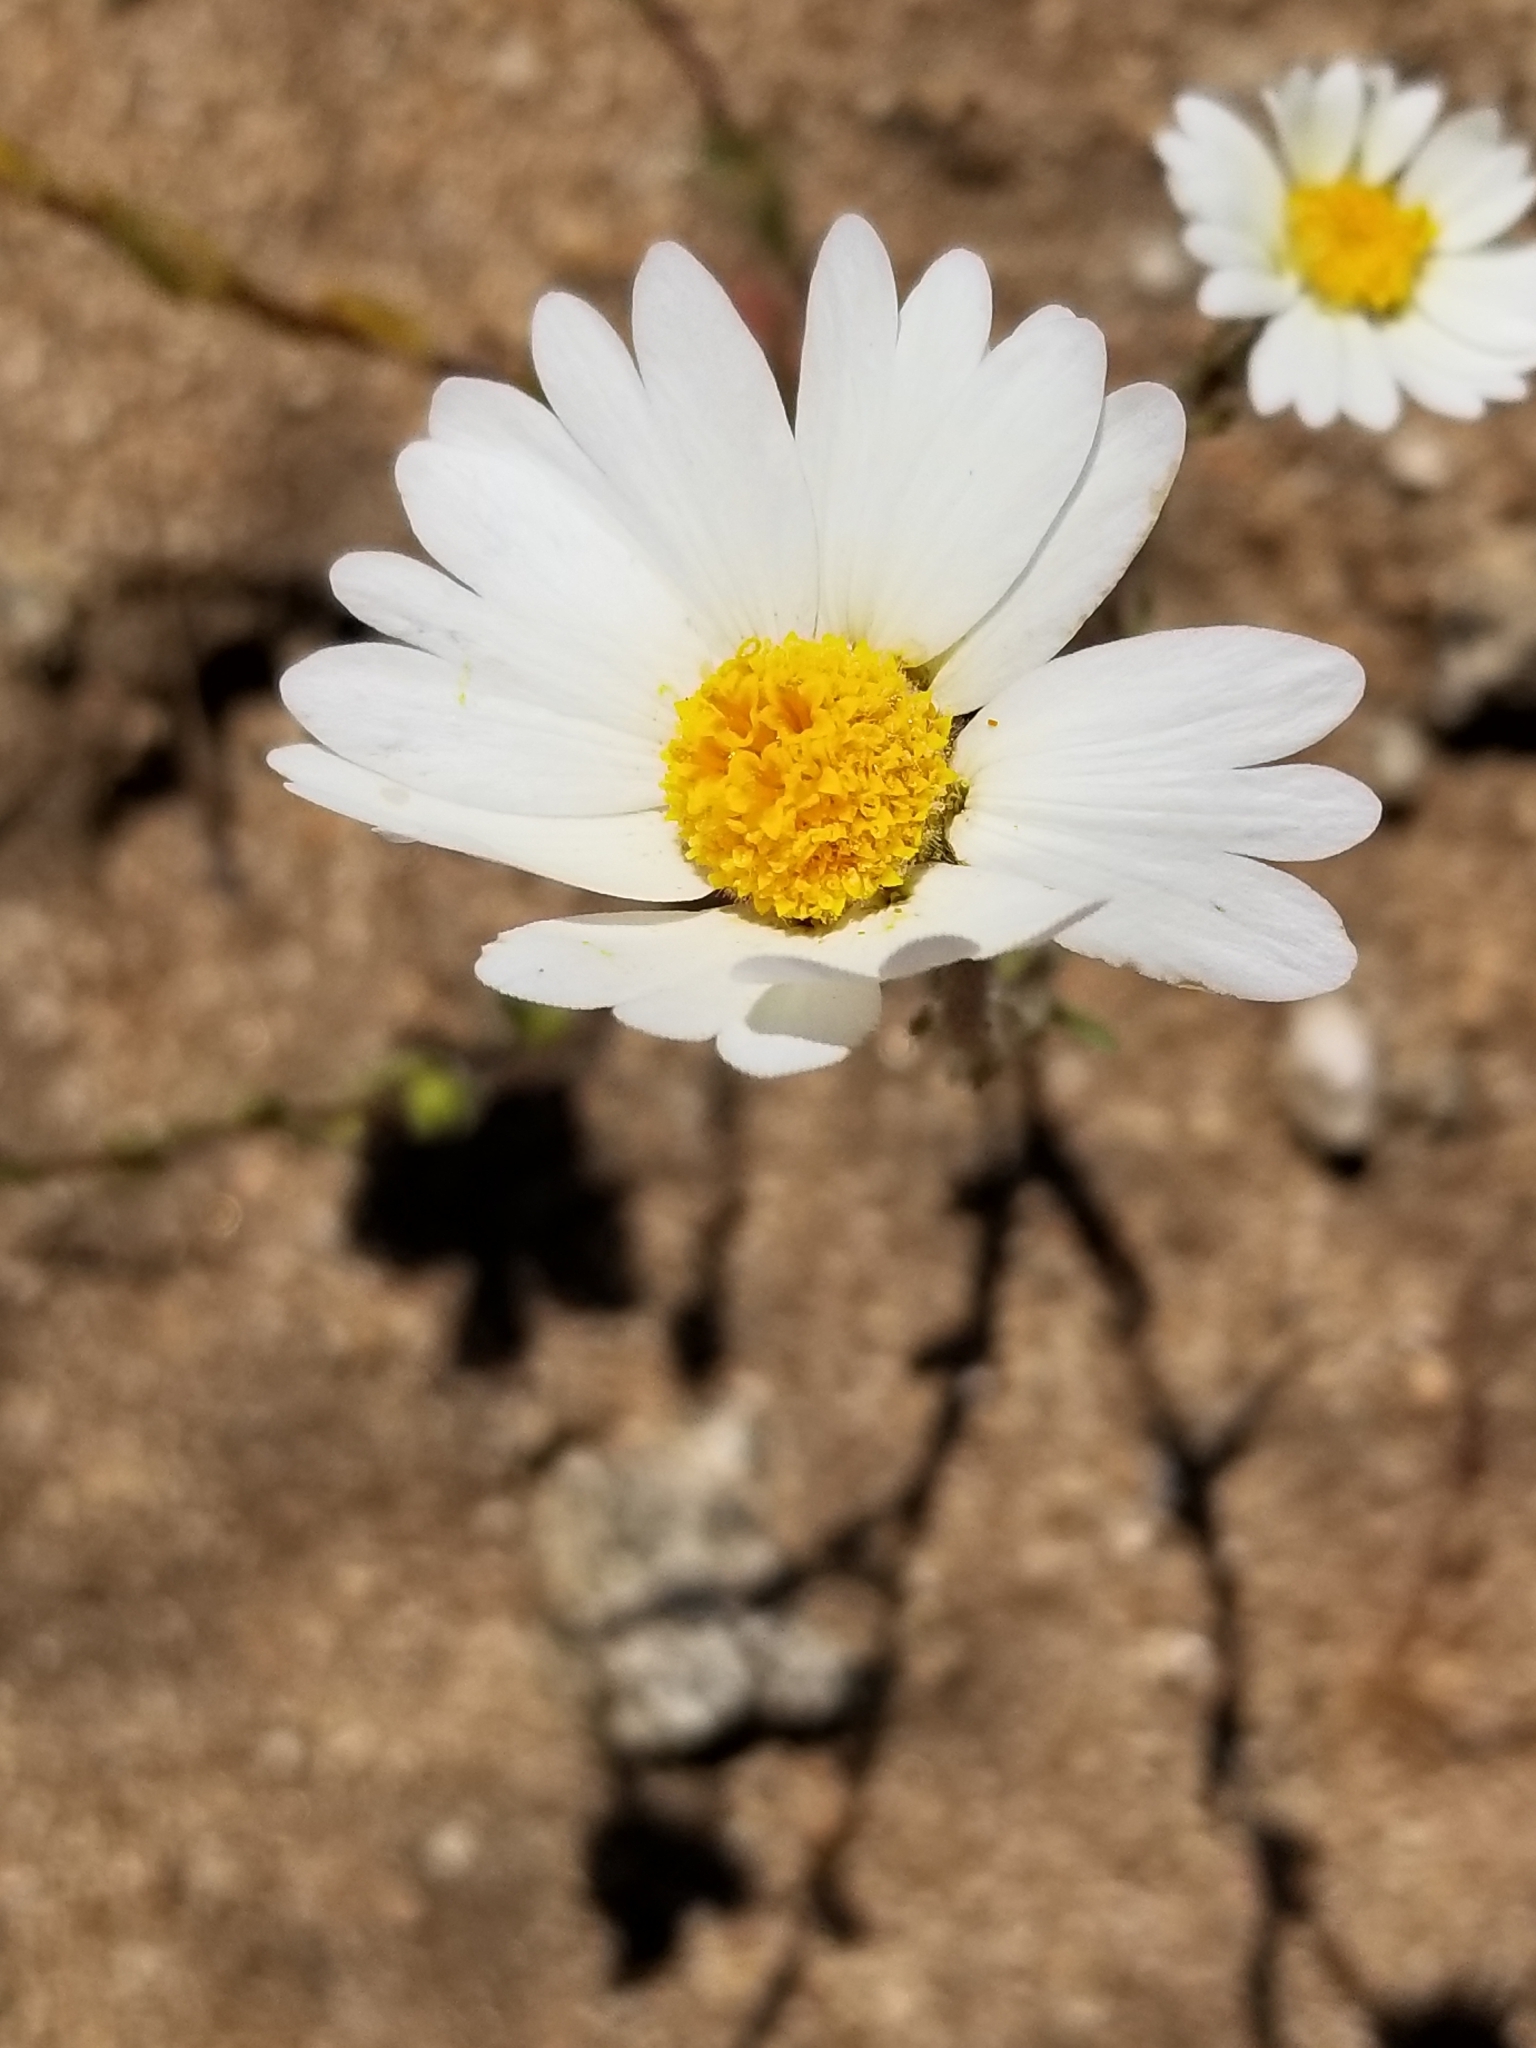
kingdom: Plantae
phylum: Tracheophyta
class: Magnoliopsida
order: Asterales
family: Asteraceae
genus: Layia
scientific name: Layia glandulosa
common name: White layia
